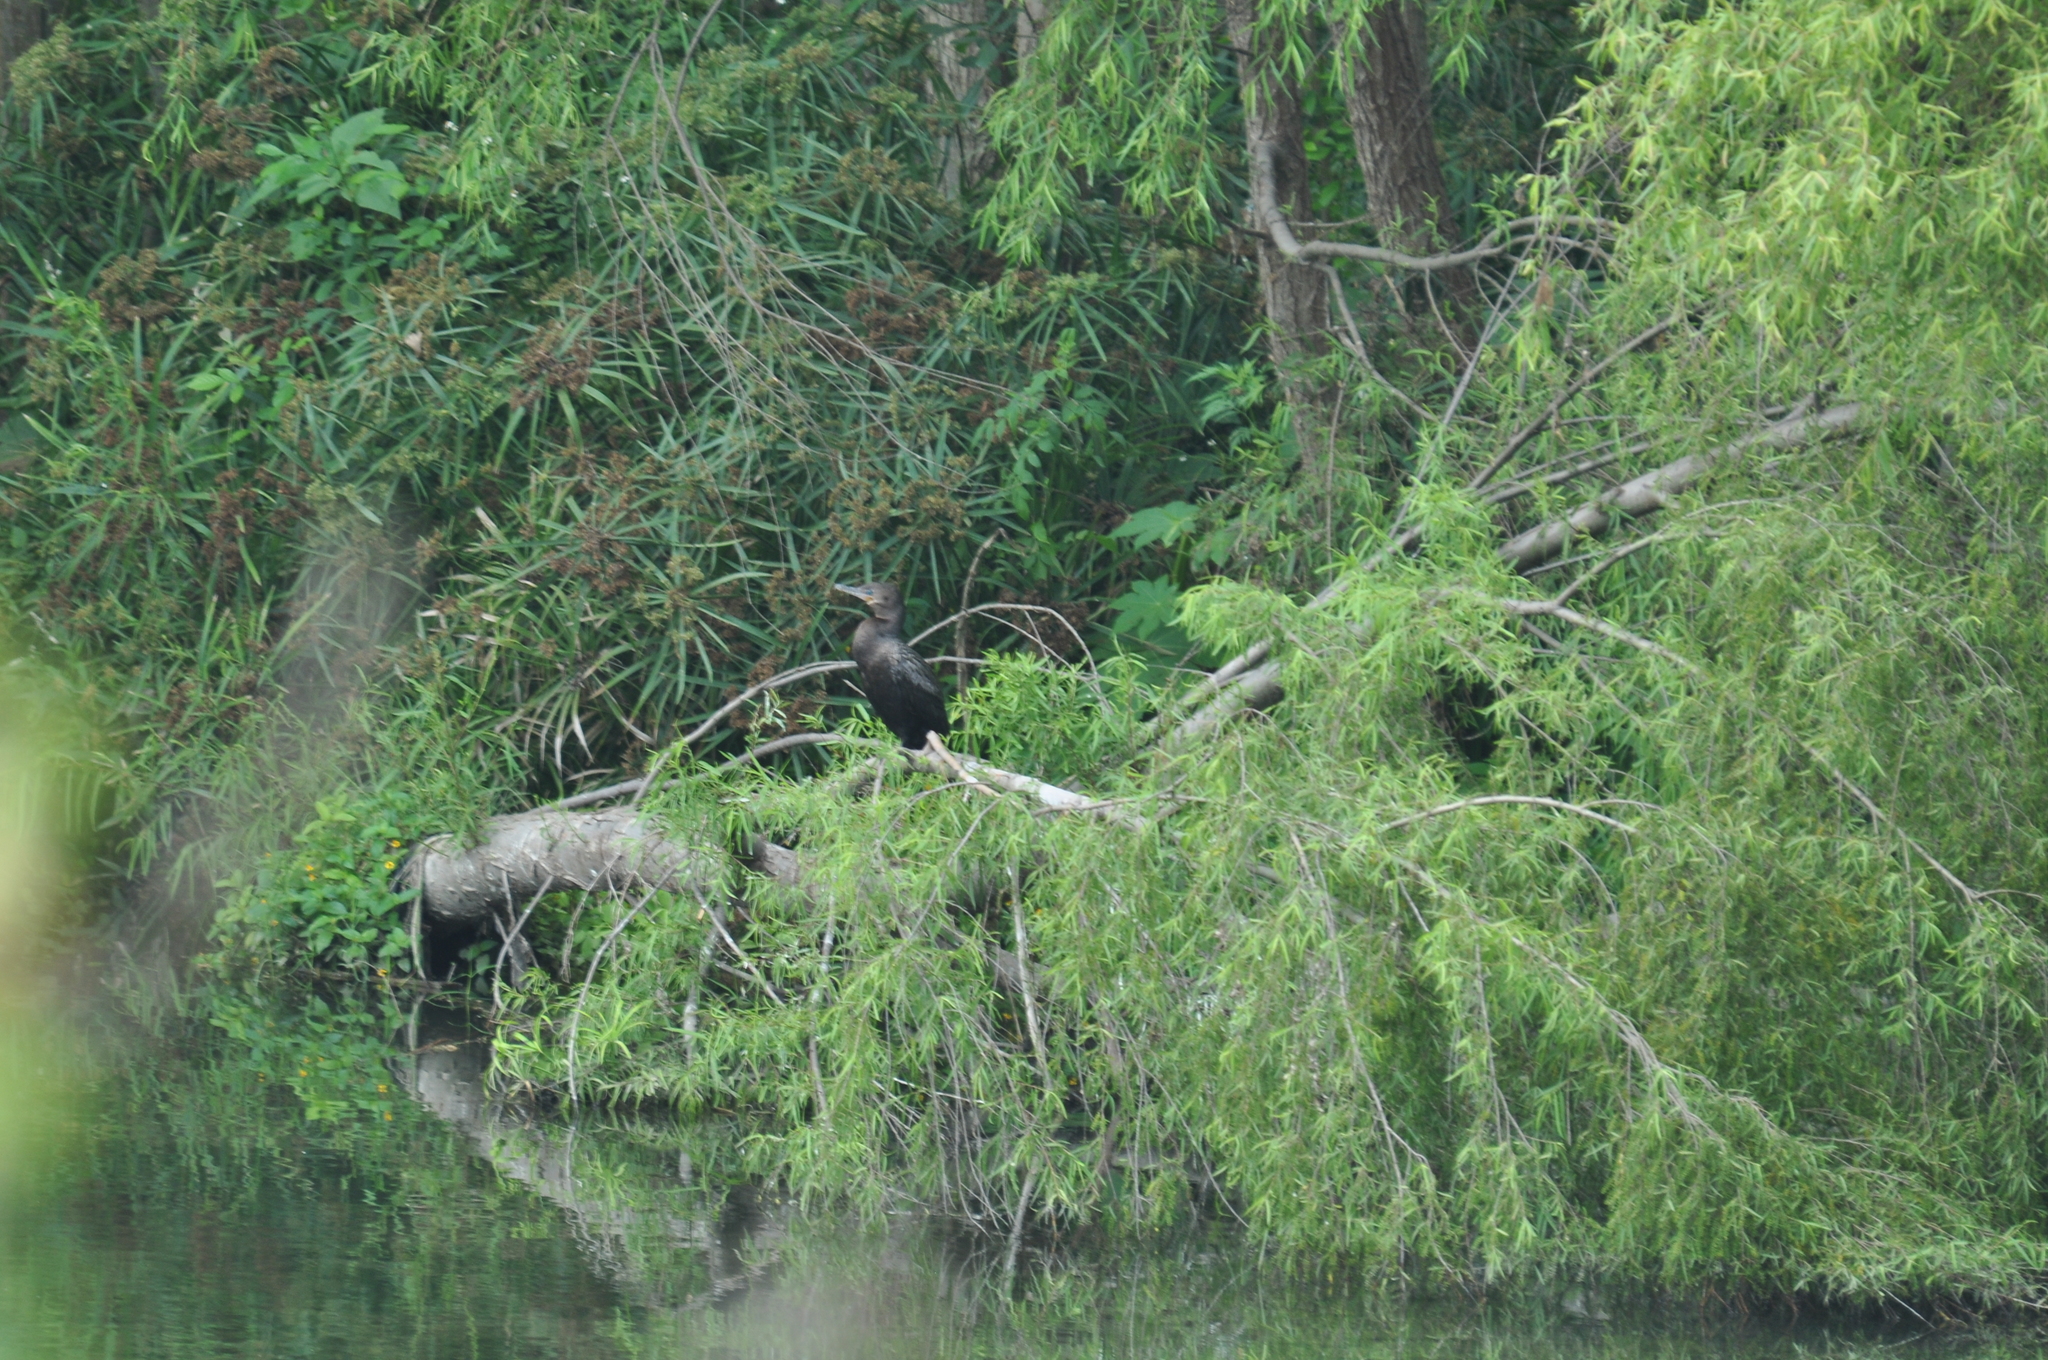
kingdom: Animalia
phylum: Chordata
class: Aves
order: Suliformes
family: Phalacrocoracidae
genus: Phalacrocorax
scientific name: Phalacrocorax brasilianus
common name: Neotropic cormorant
